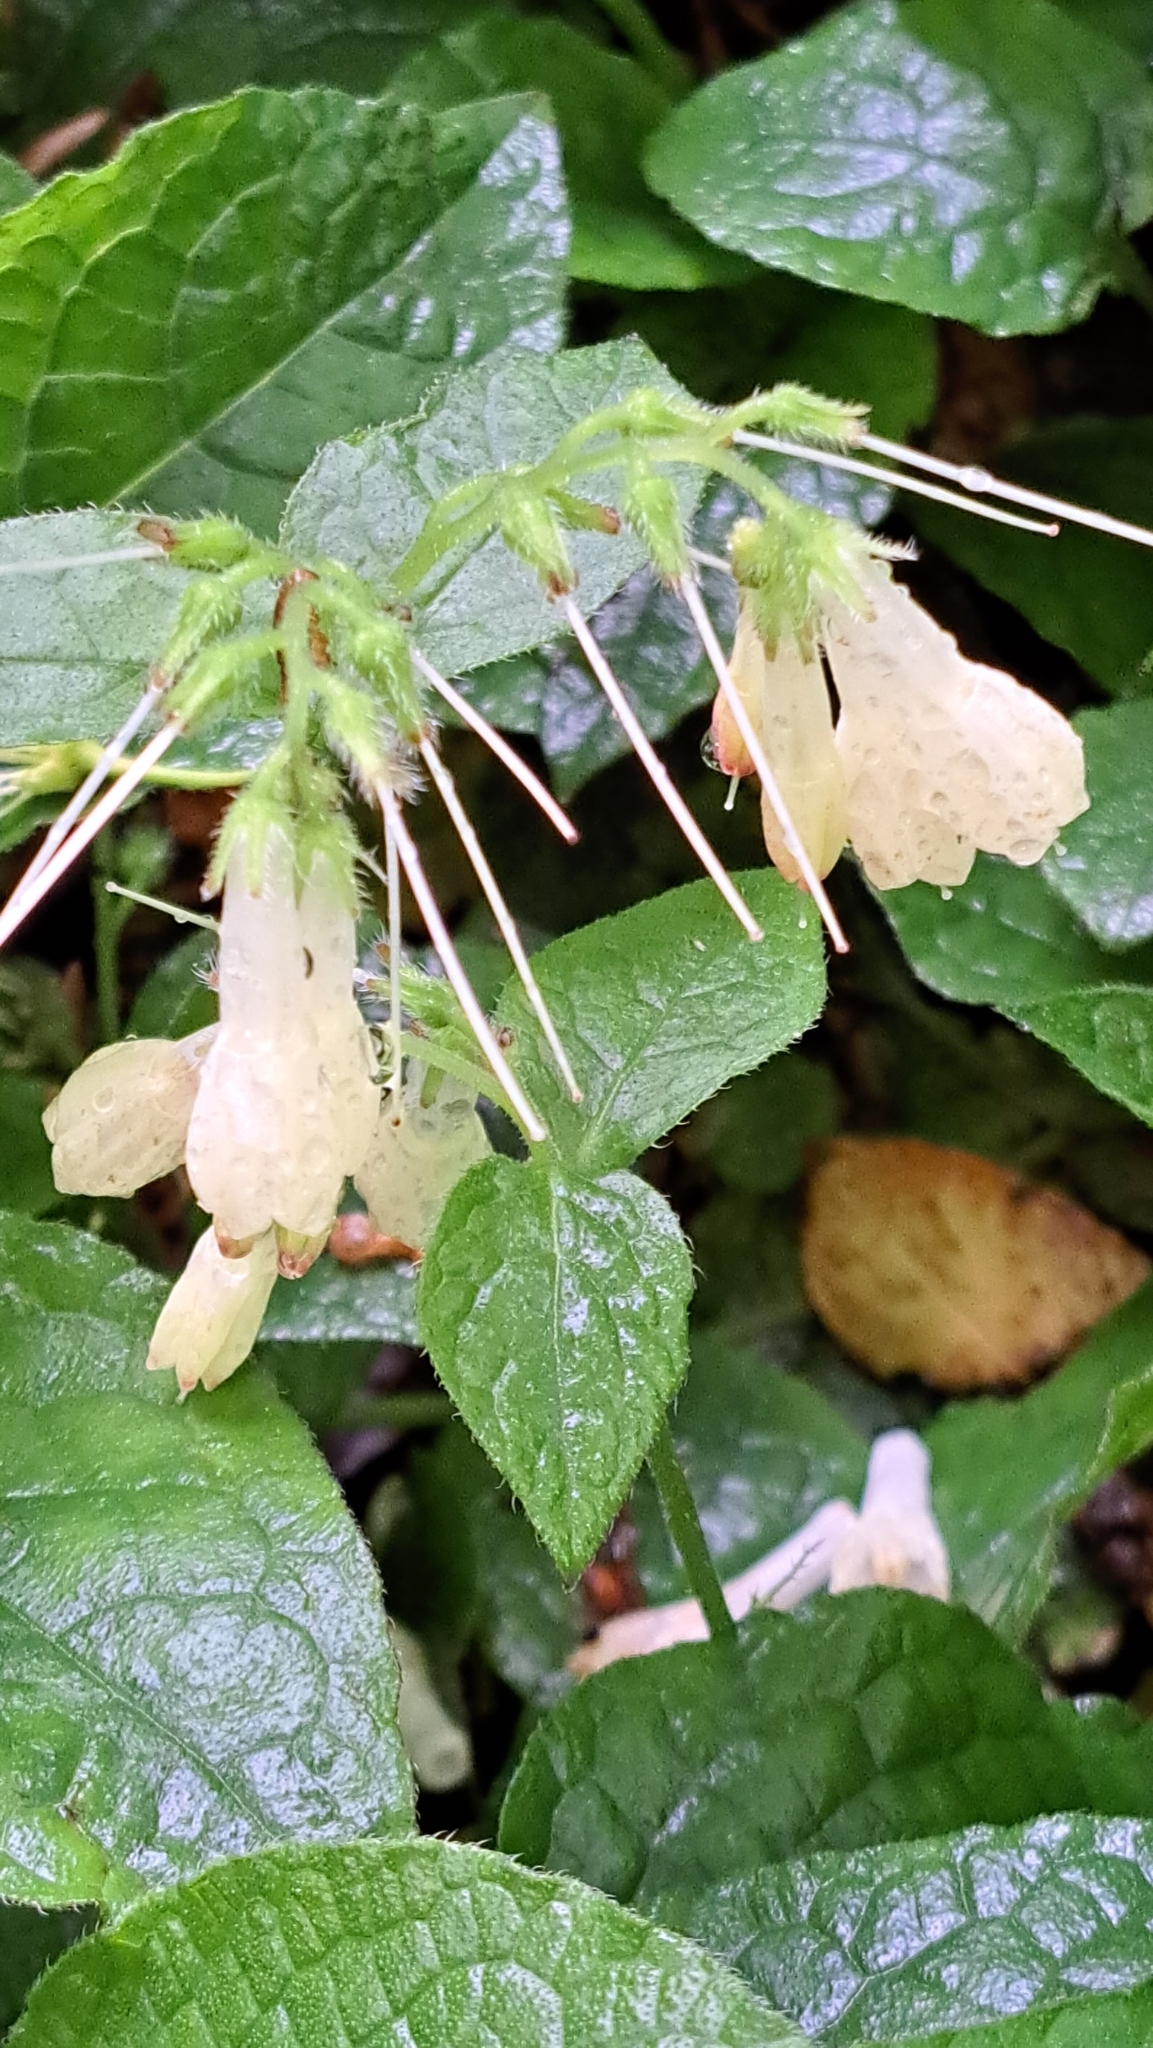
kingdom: Plantae
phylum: Tracheophyta
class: Magnoliopsida
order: Boraginales
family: Boraginaceae
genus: Symphytum
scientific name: Symphytum grandiflorum
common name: Creeping comfrey
